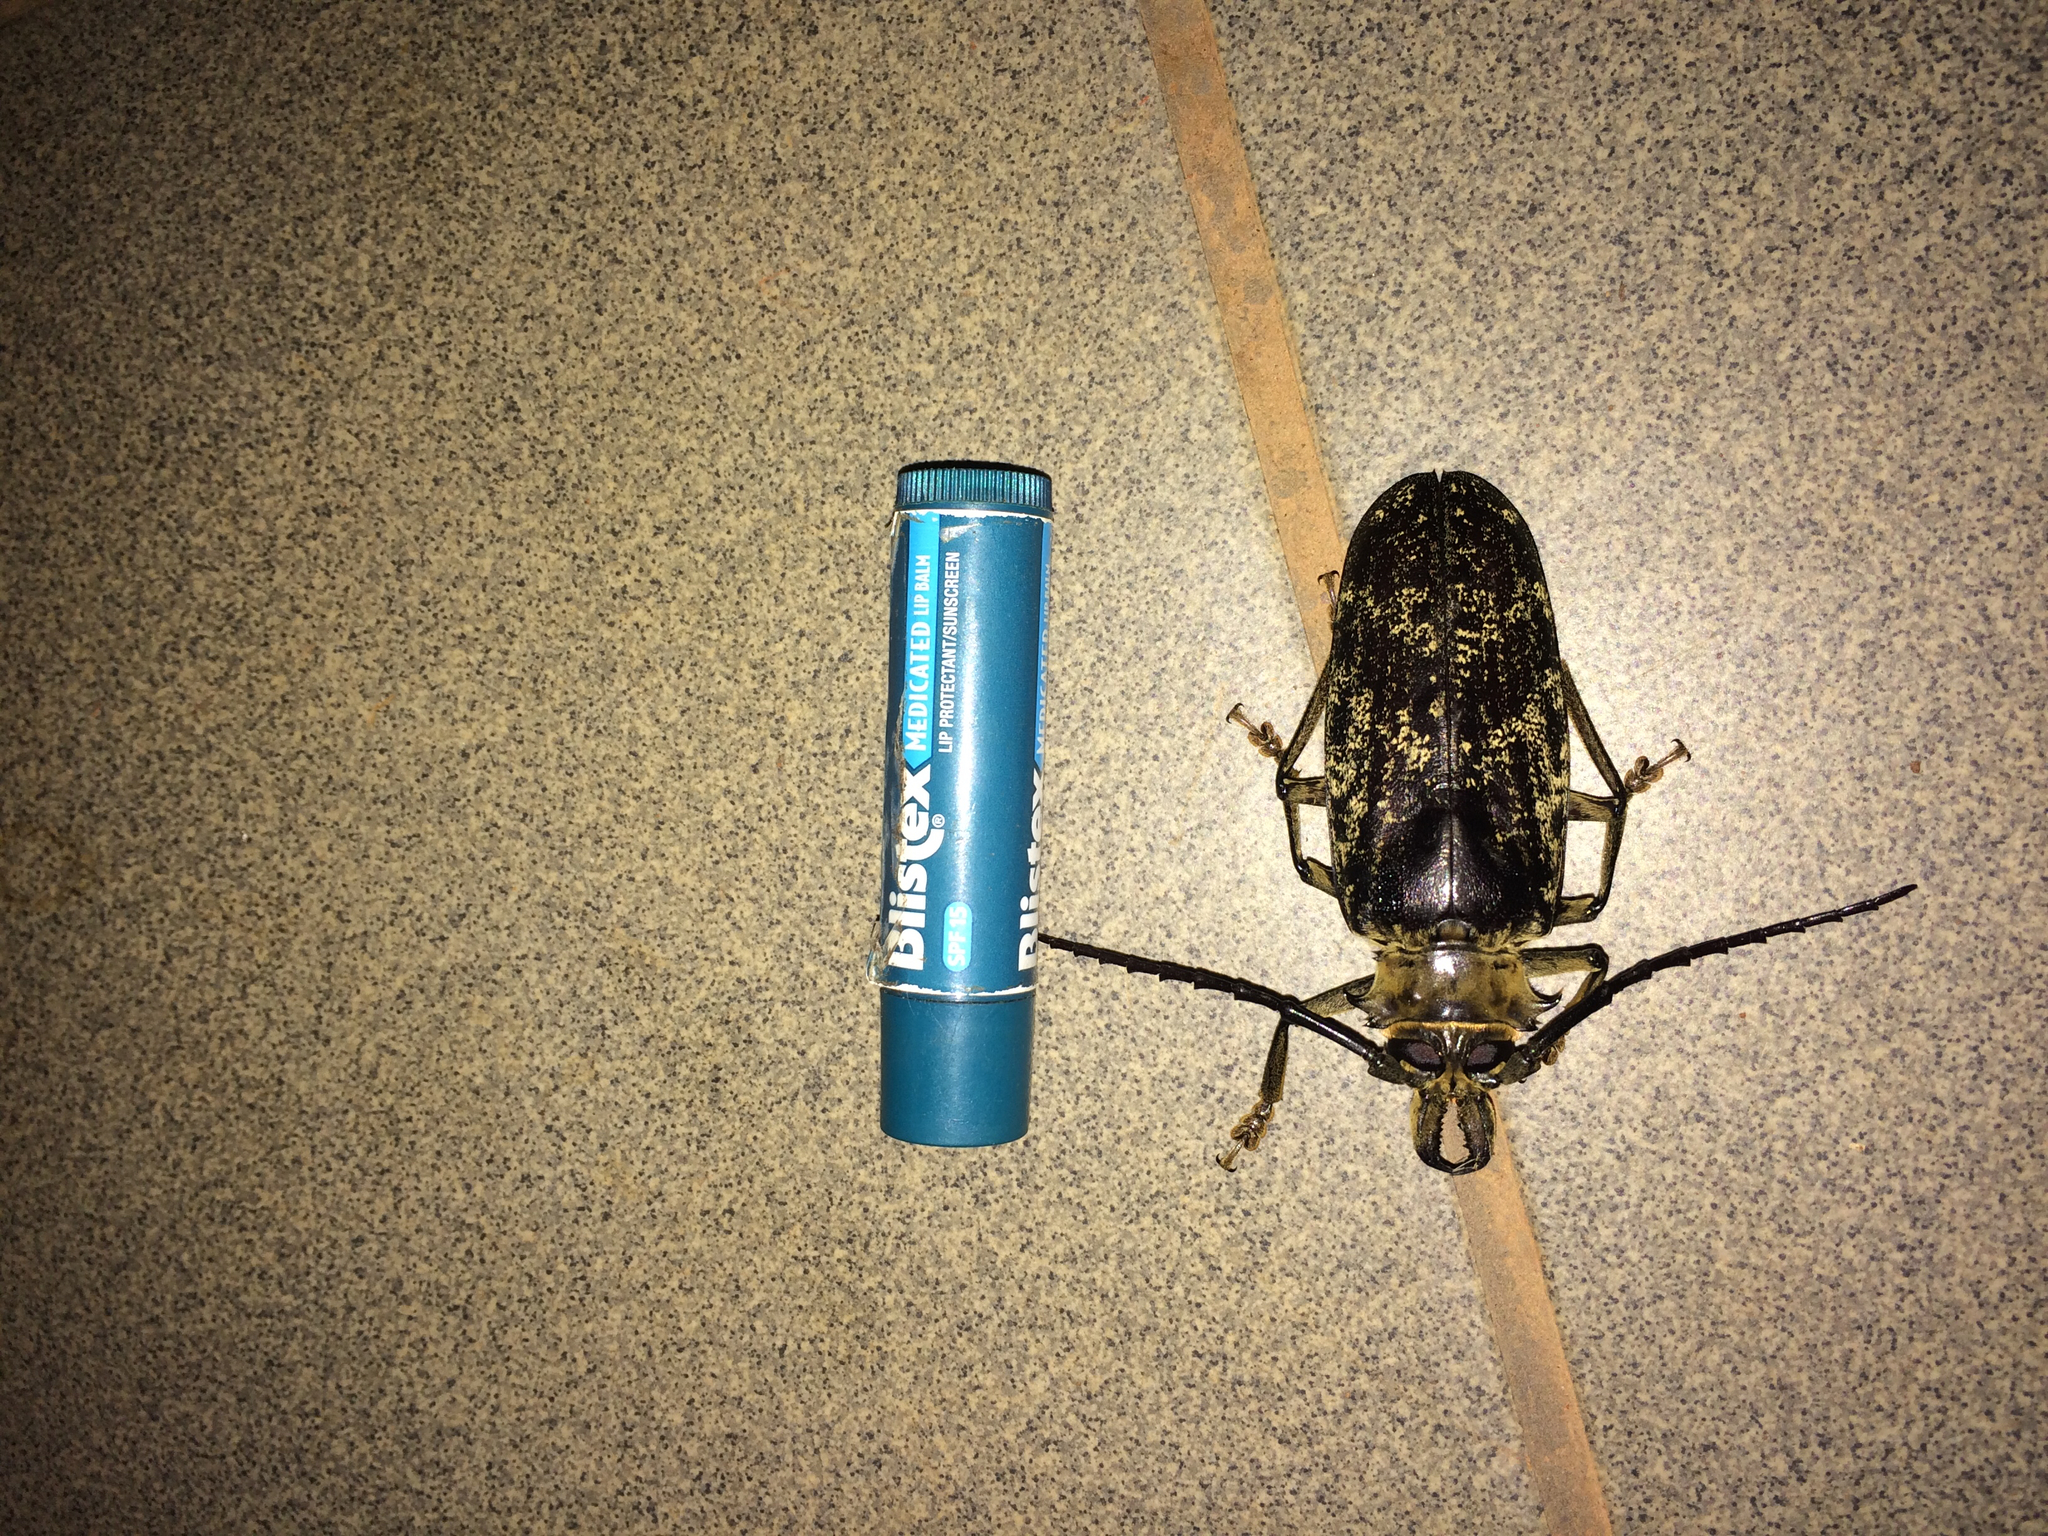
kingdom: Animalia
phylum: Arthropoda
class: Insecta
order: Coleoptera
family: Cerambycidae
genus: Tithoes
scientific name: Tithoes
